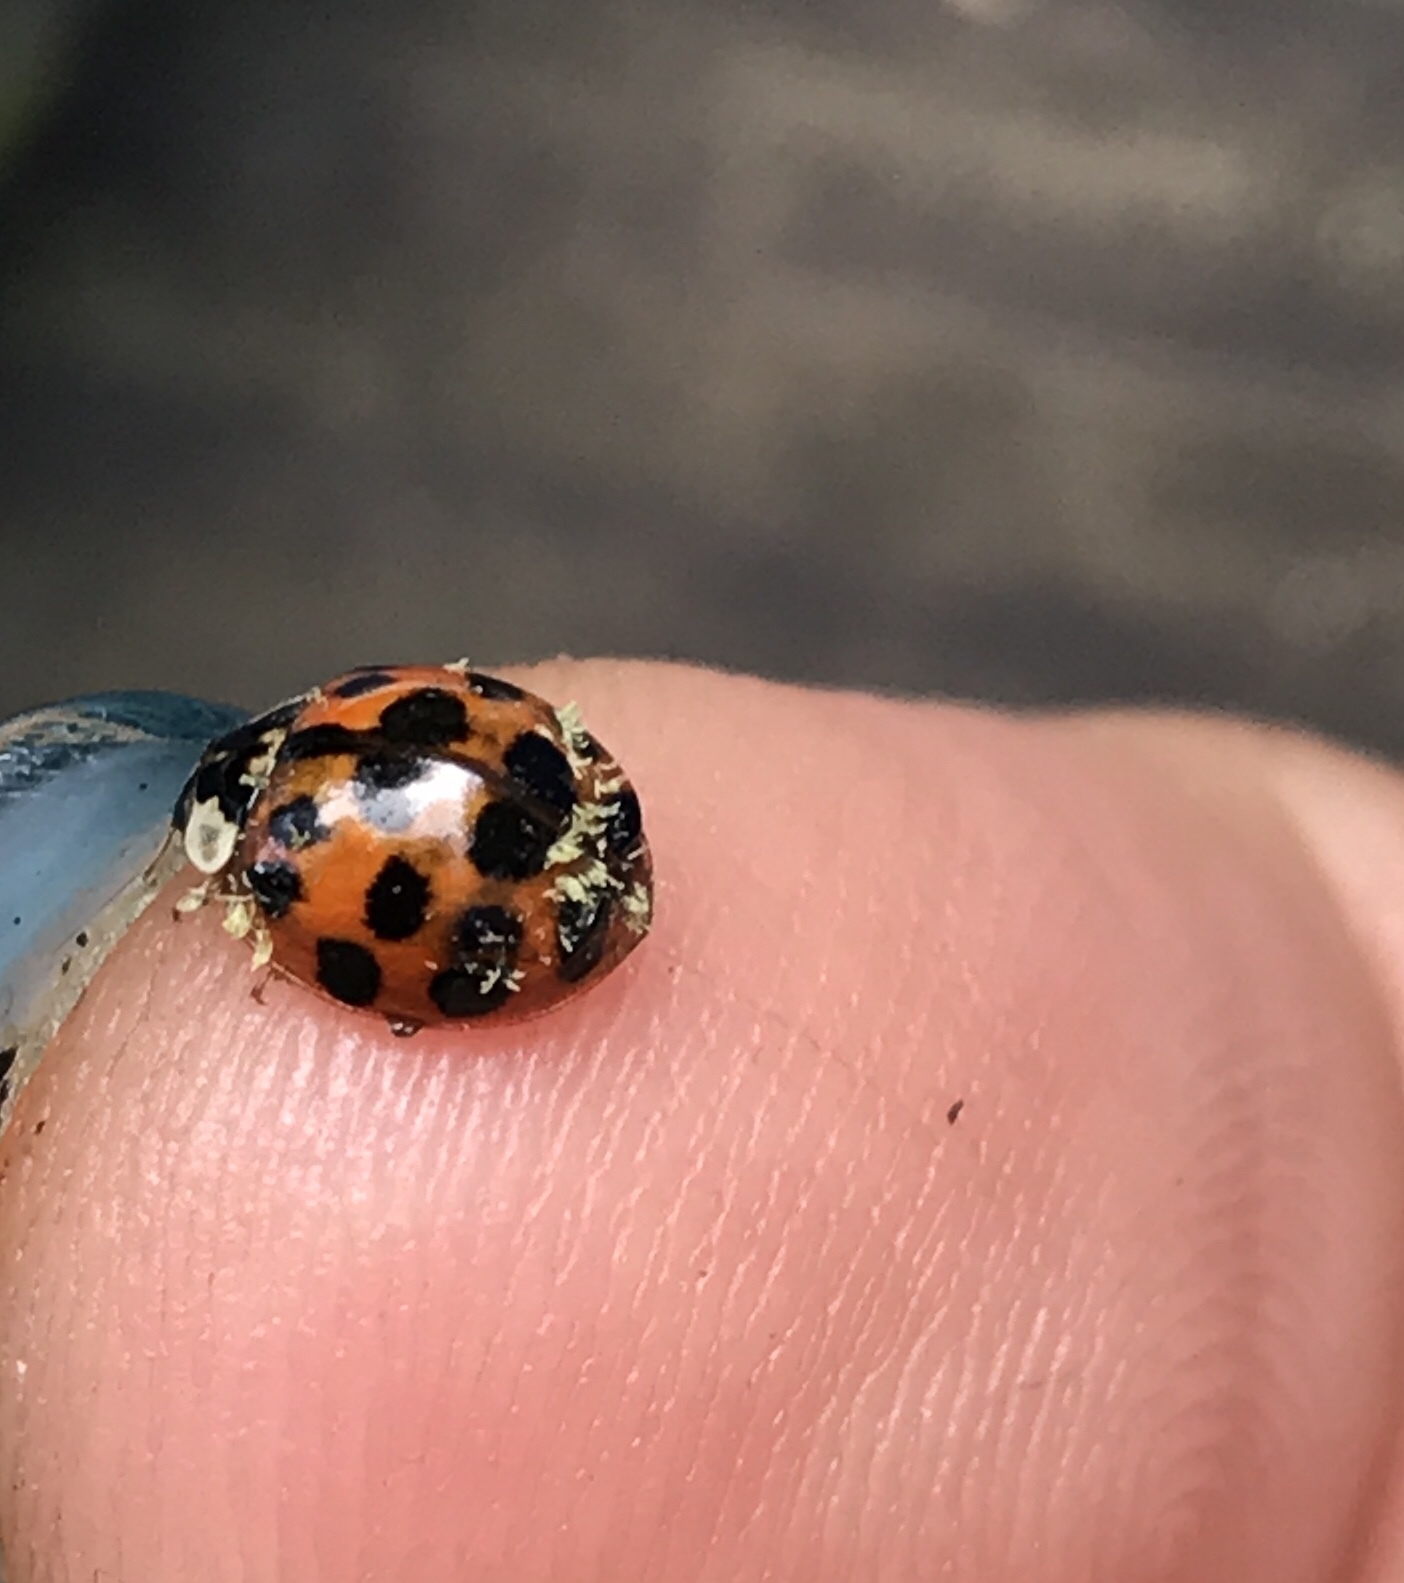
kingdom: Animalia
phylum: Arthropoda
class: Insecta
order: Coleoptera
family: Coccinellidae
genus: Harmonia
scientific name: Harmonia axyridis
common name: Harlequin ladybird
